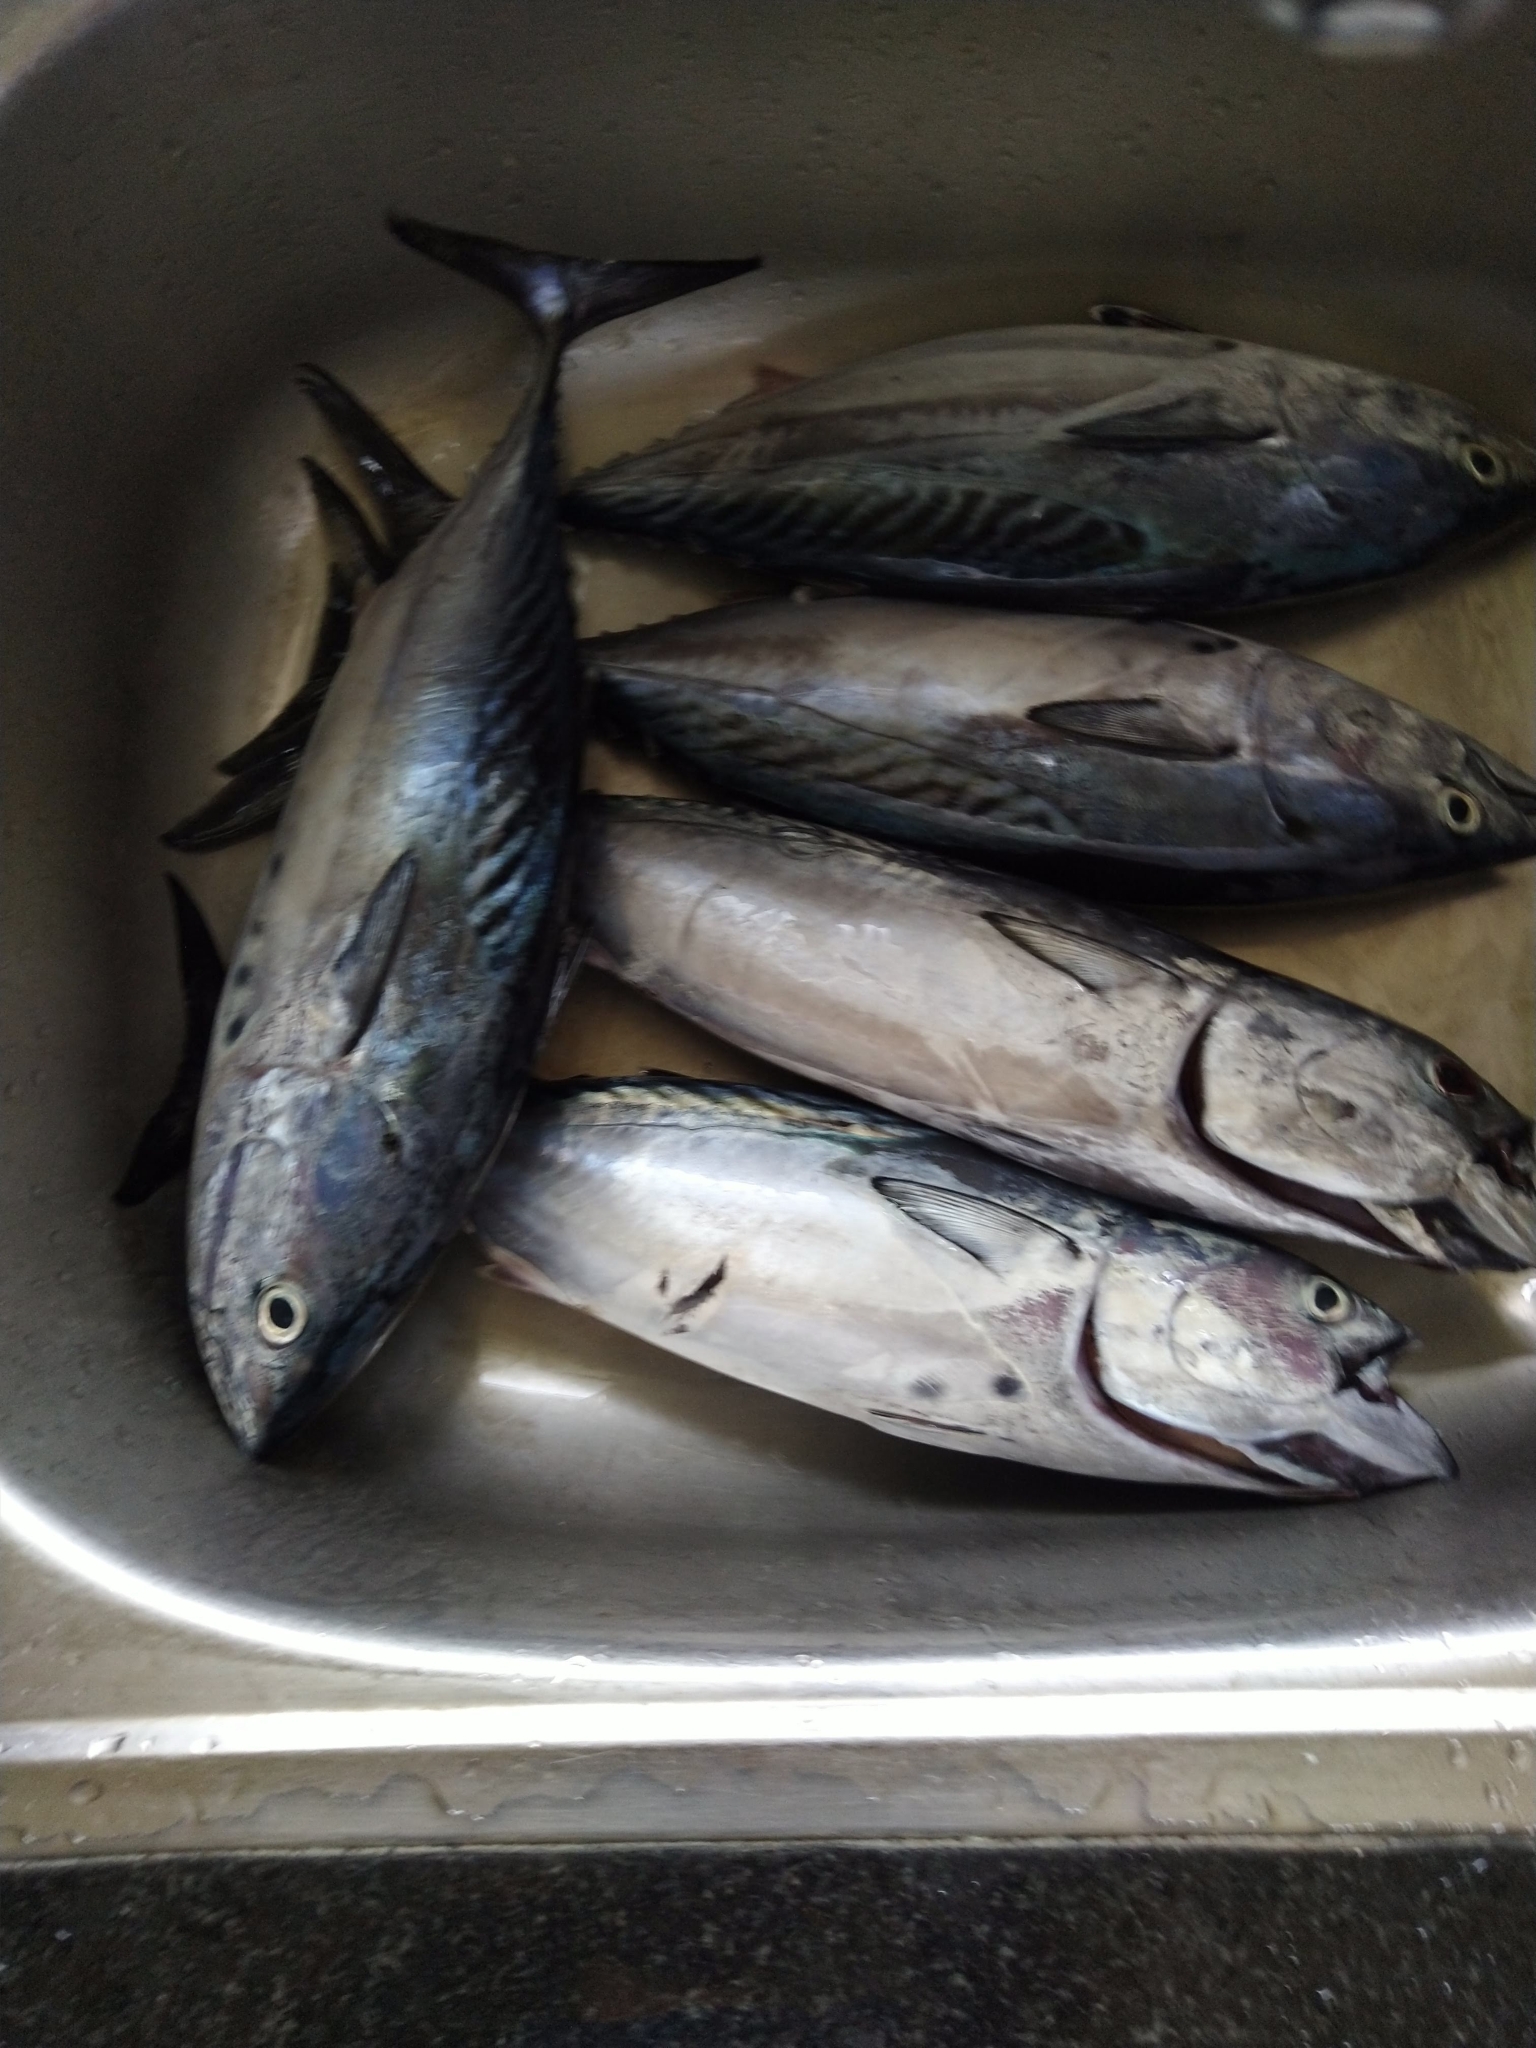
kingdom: Animalia
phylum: Chordata
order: Perciformes
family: Scombridae
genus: Euthynnus
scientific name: Euthynnus affinis
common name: Mackerel tuna
